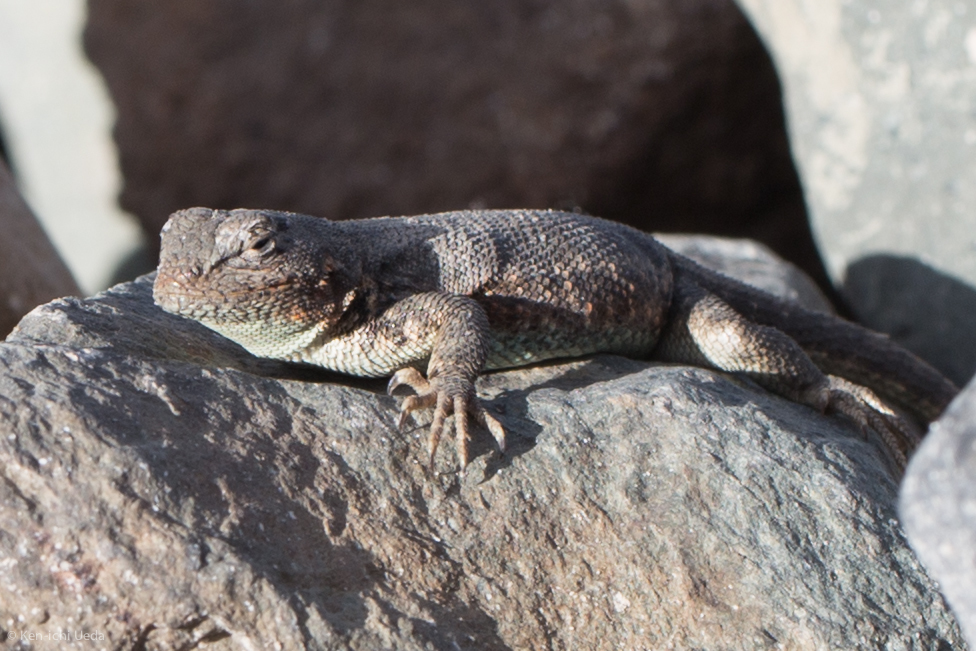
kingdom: Animalia
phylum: Chordata
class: Squamata
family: Phrynosomatidae
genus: Sceloporus
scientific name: Sceloporus graciosus
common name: Sagebrush lizard
